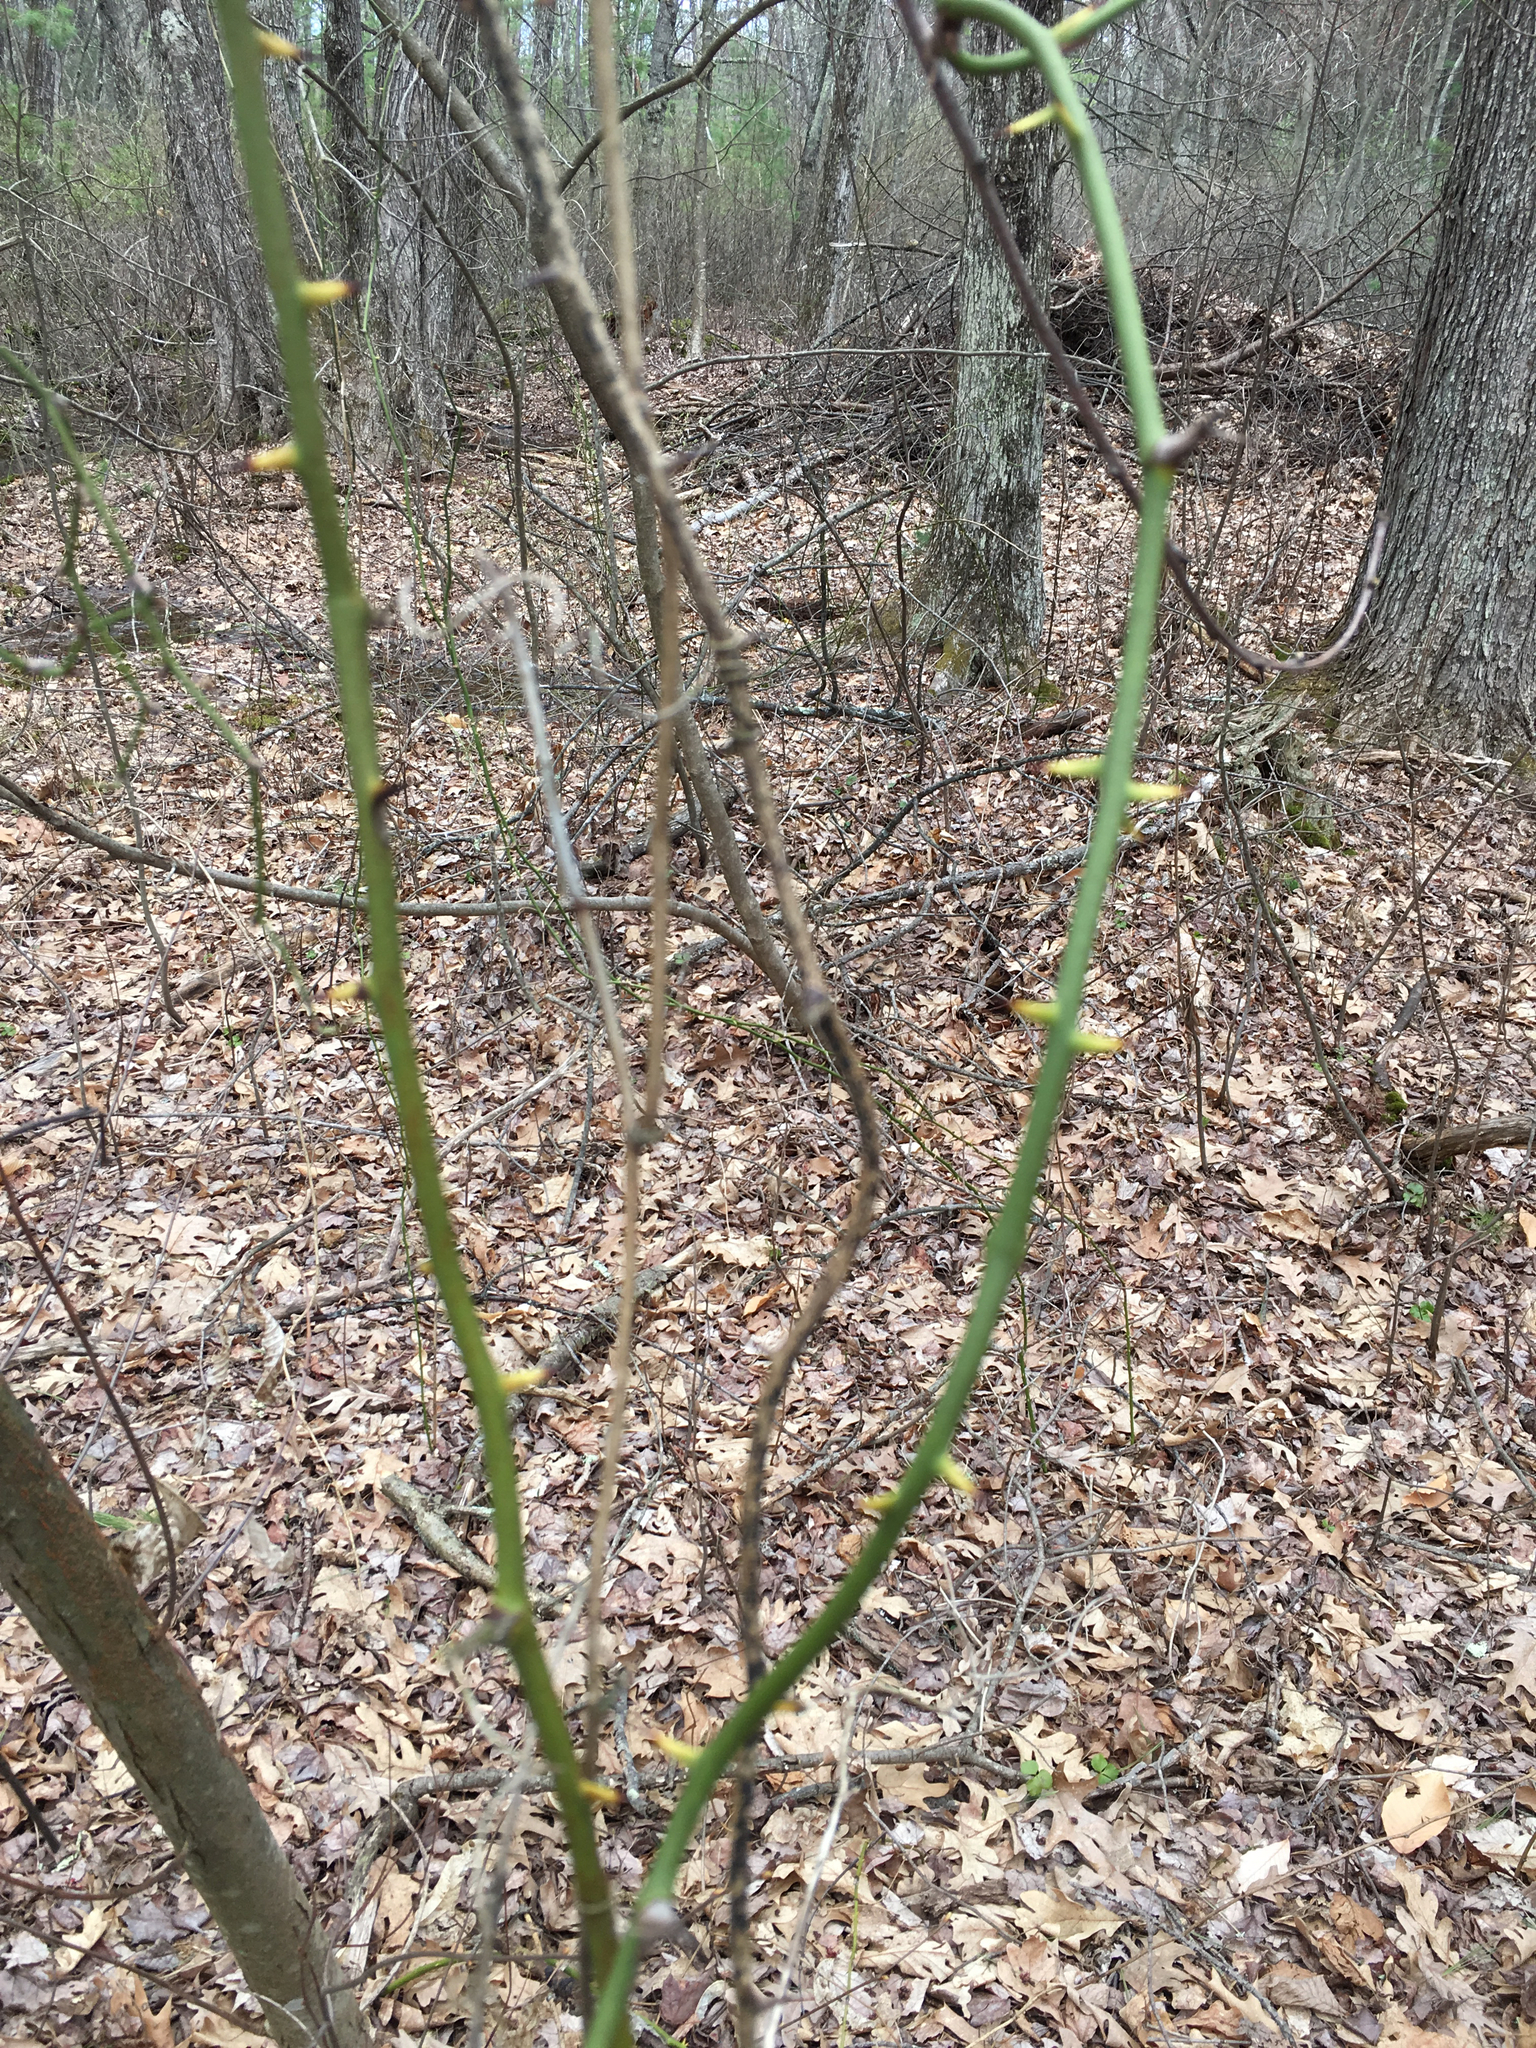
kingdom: Plantae
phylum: Tracheophyta
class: Liliopsida
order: Liliales
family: Smilacaceae
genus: Smilax
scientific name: Smilax rotundifolia
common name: Bullbriar
